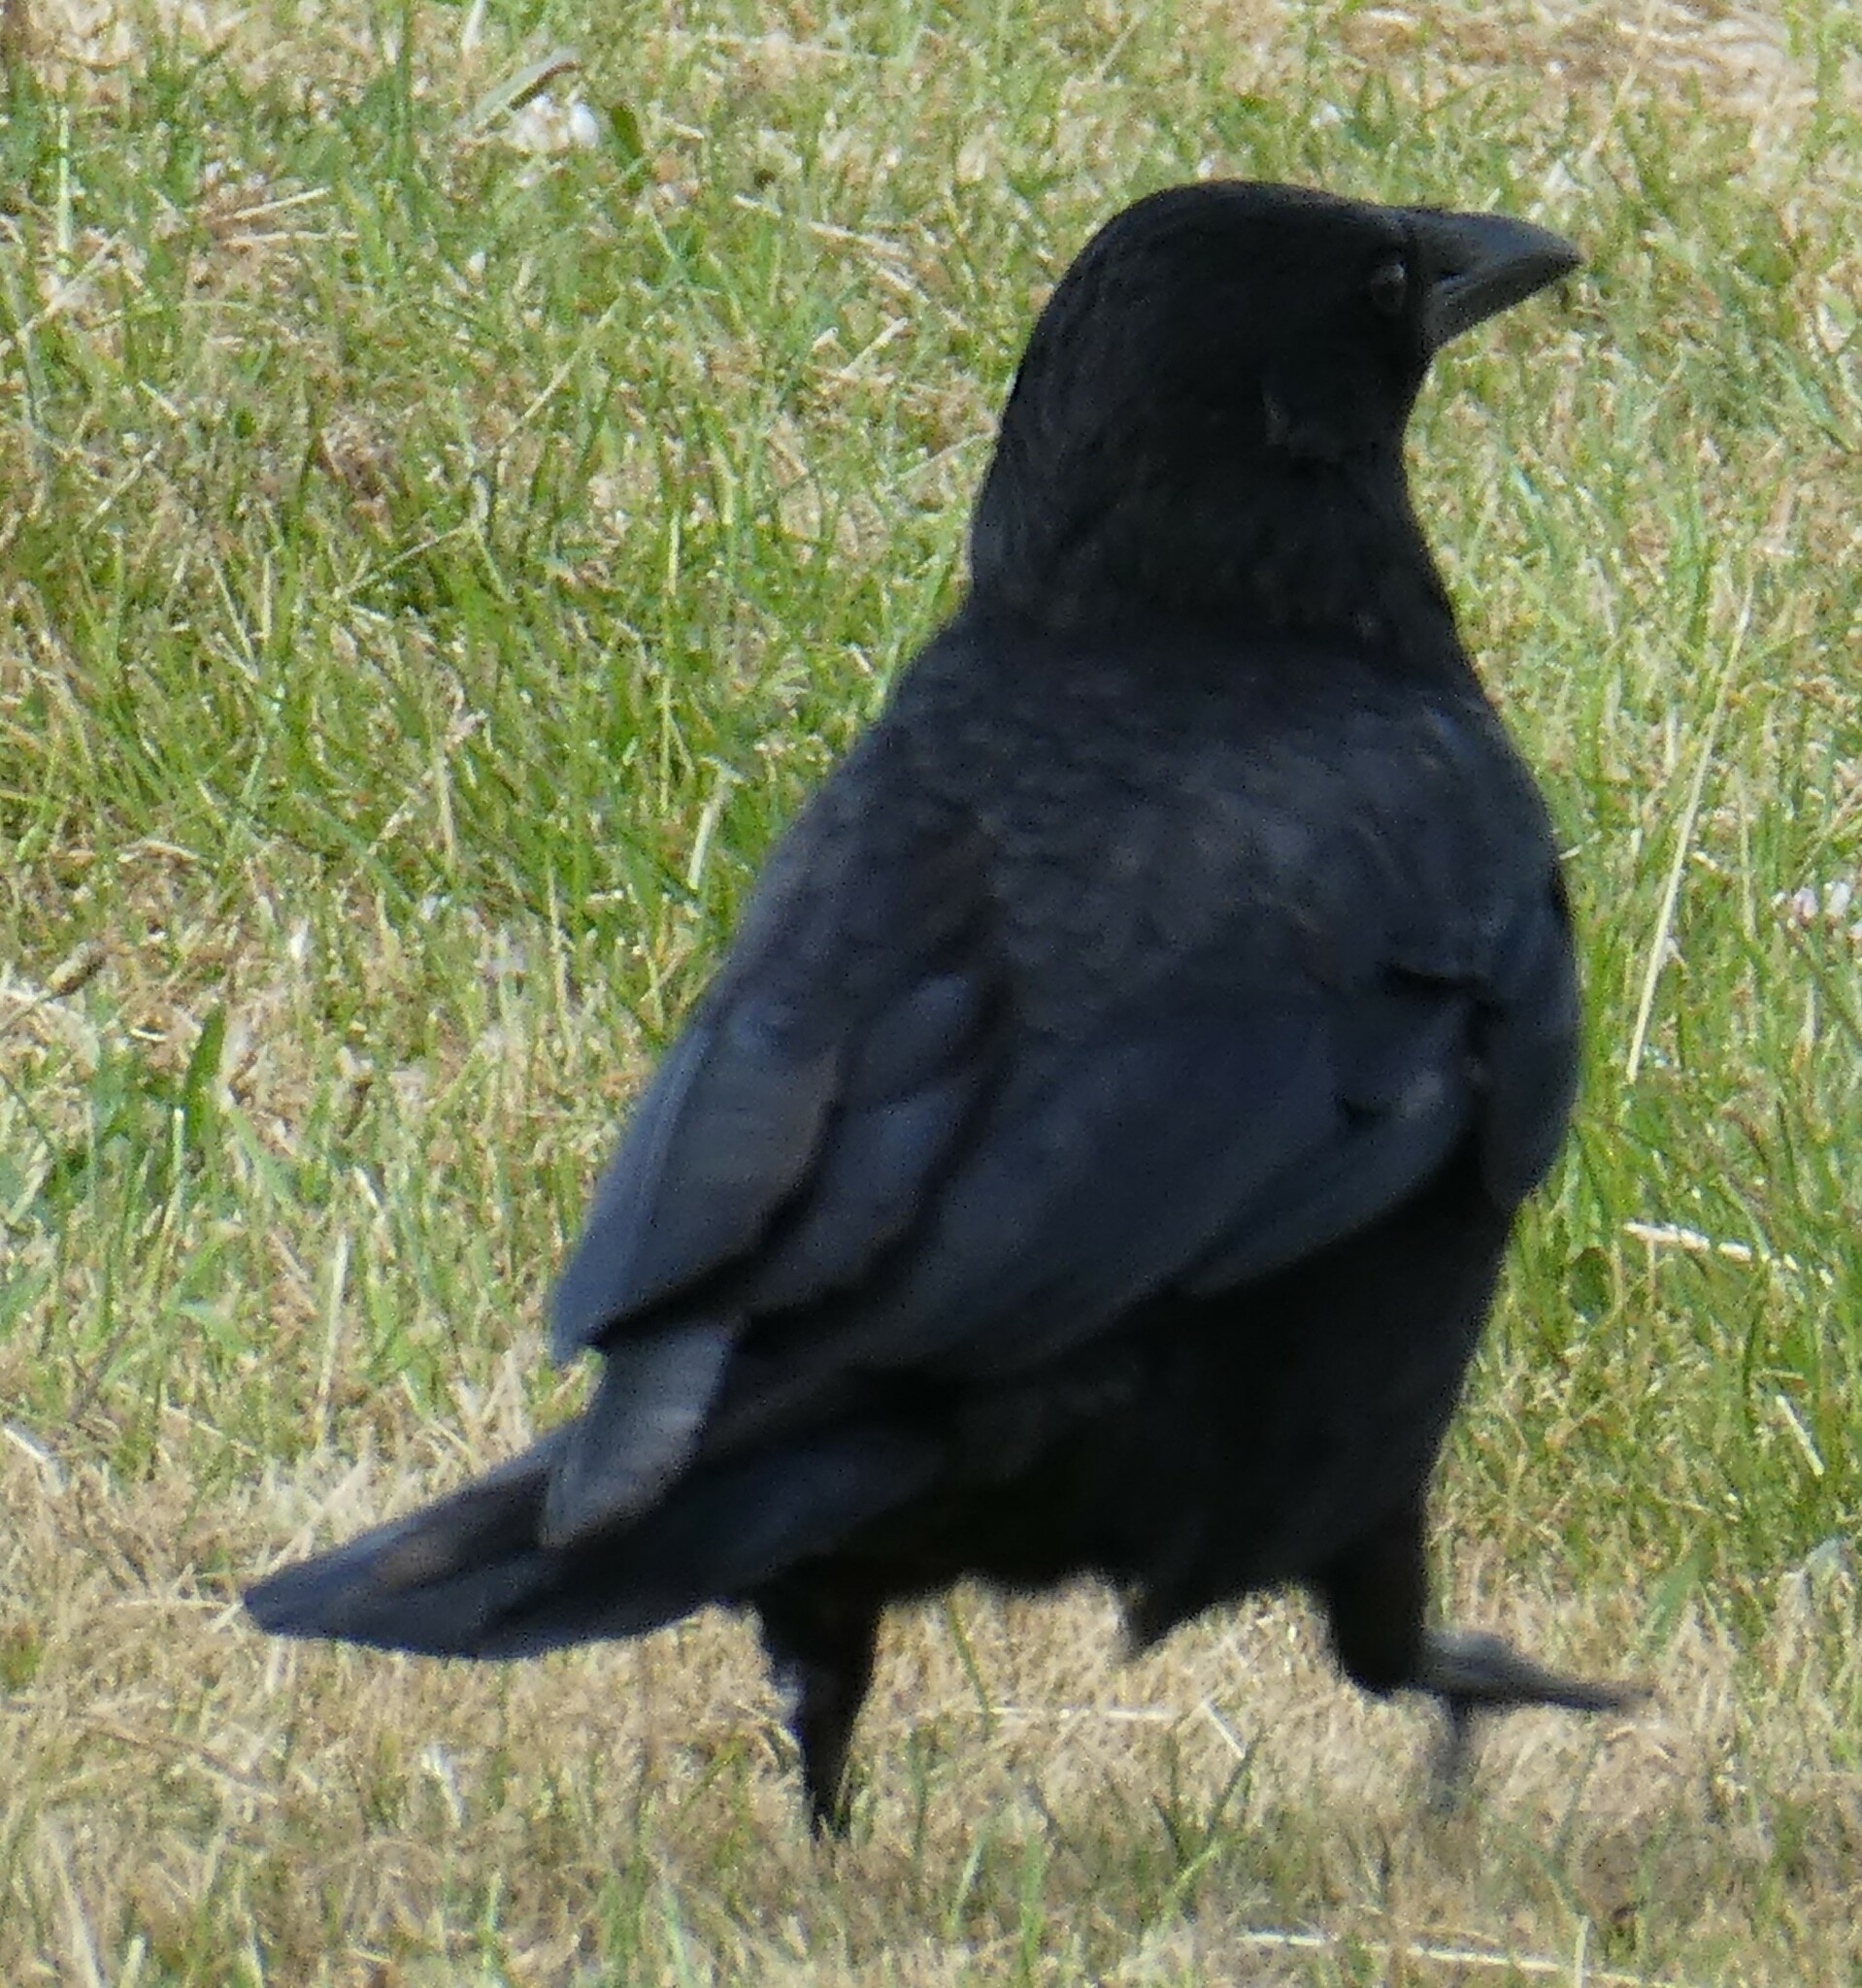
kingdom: Animalia
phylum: Chordata
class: Aves
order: Passeriformes
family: Corvidae
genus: Corvus
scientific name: Corvus corone
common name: Carrion crow
